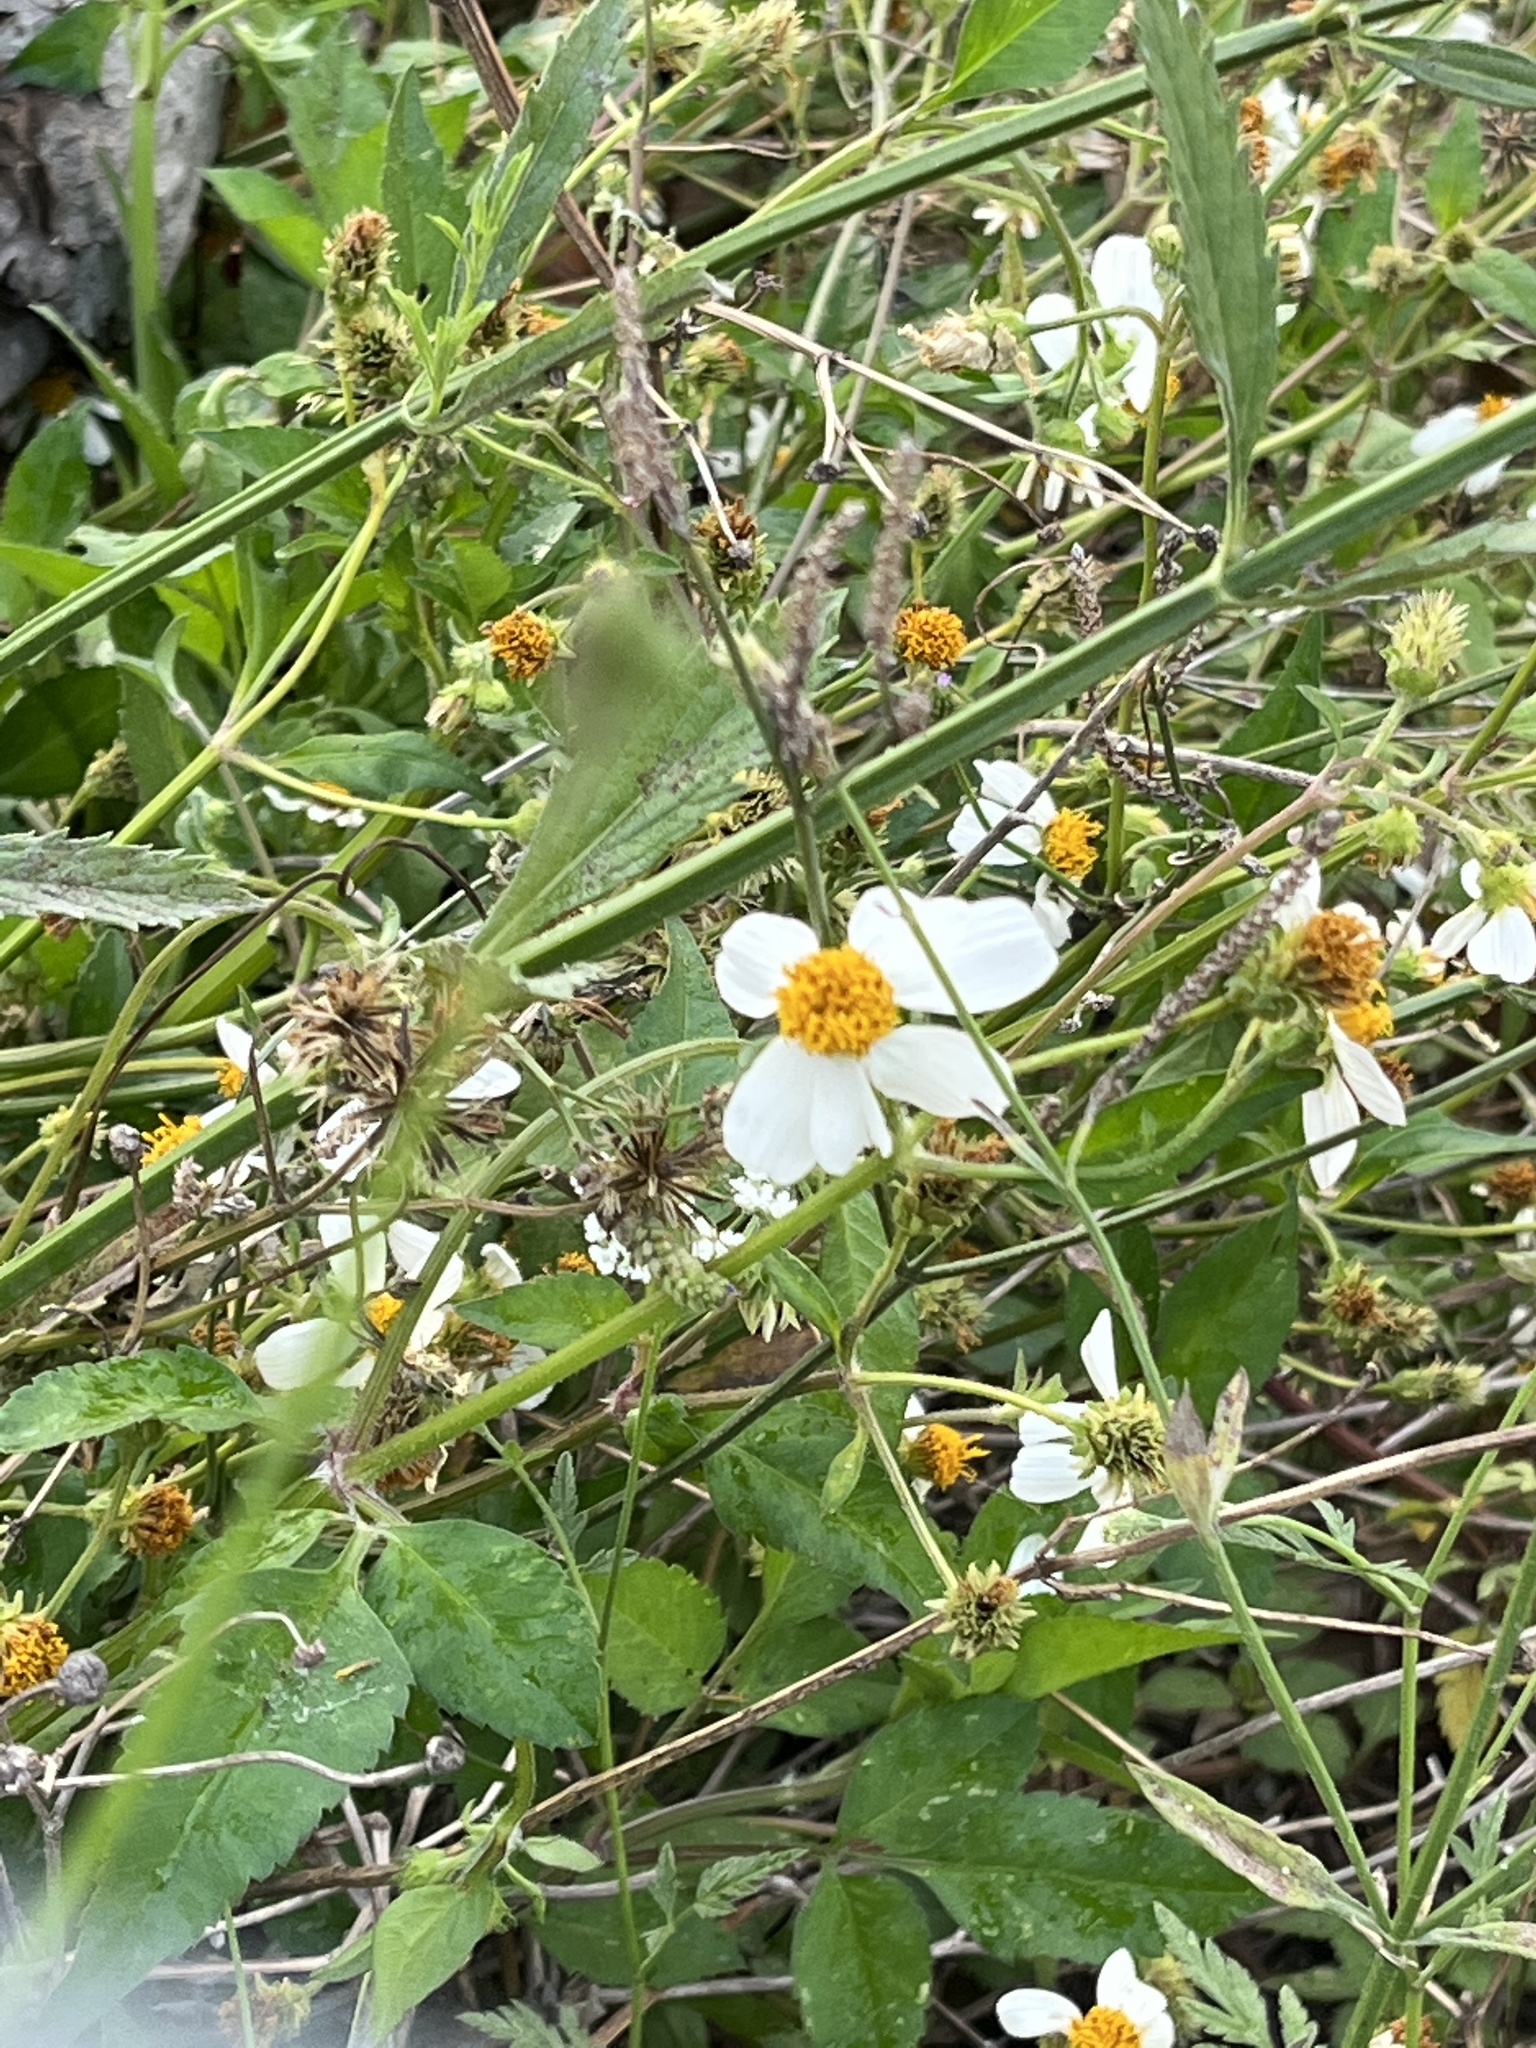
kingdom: Plantae
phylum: Tracheophyta
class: Magnoliopsida
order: Asterales
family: Asteraceae
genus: Bidens
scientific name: Bidens alba
